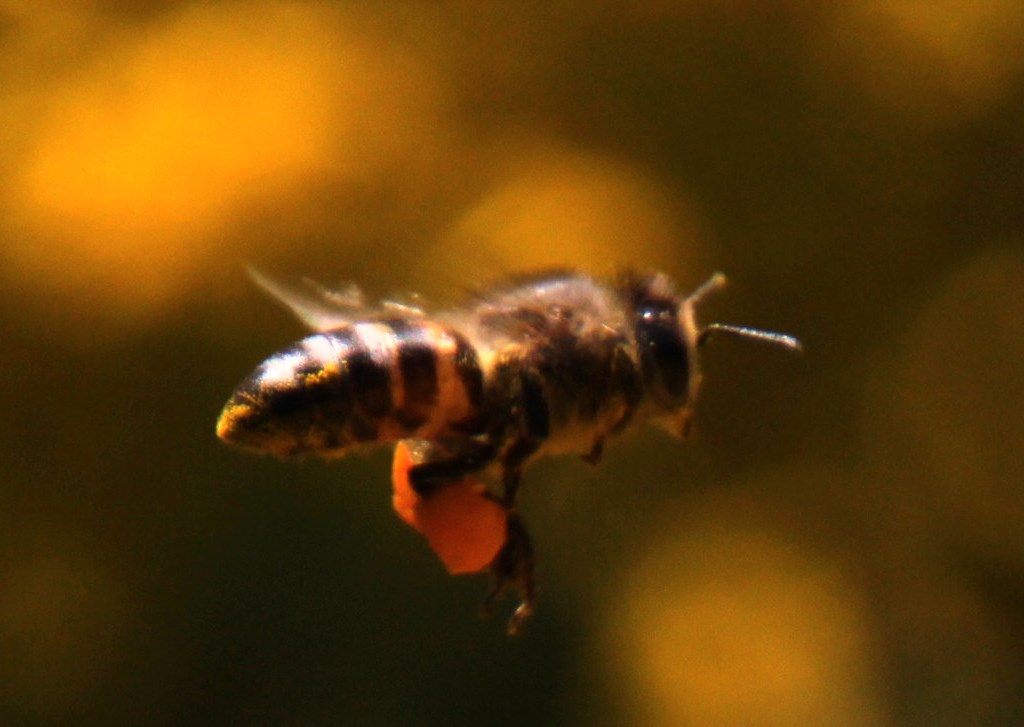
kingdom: Animalia
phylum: Arthropoda
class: Insecta
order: Hymenoptera
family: Apidae
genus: Apis
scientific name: Apis mellifera
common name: Honey bee
